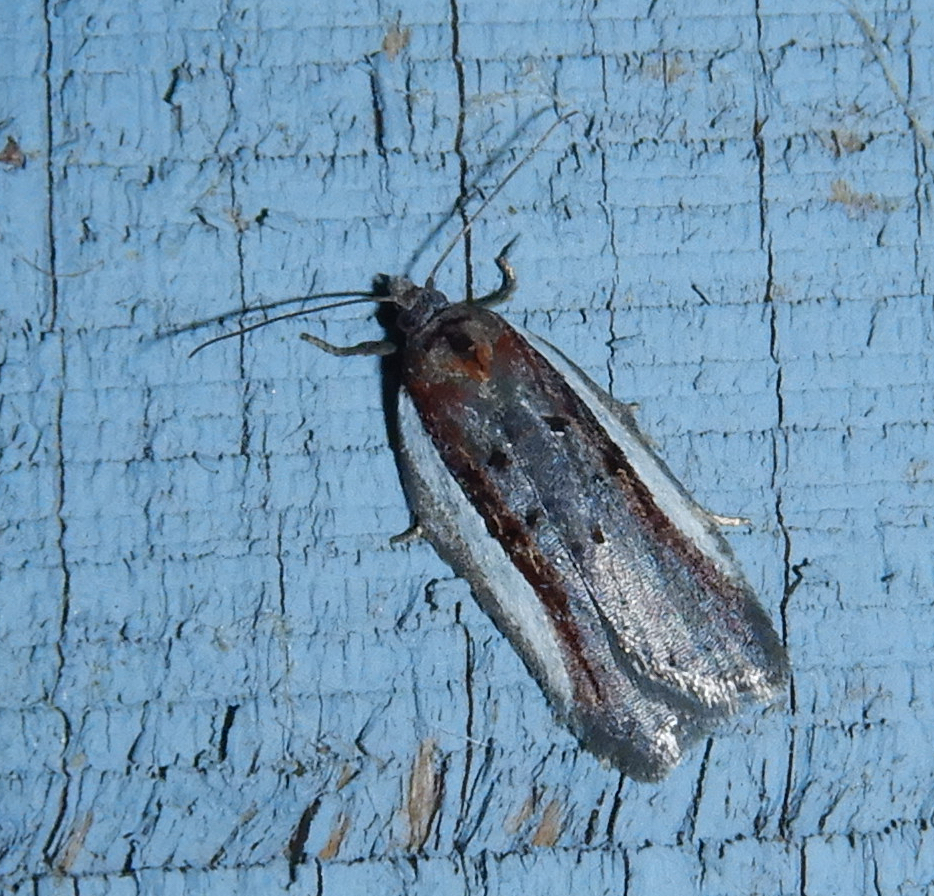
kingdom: Animalia
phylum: Arthropoda
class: Insecta
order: Lepidoptera
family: Tortricidae
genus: Acleris
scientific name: Acleris celiana
